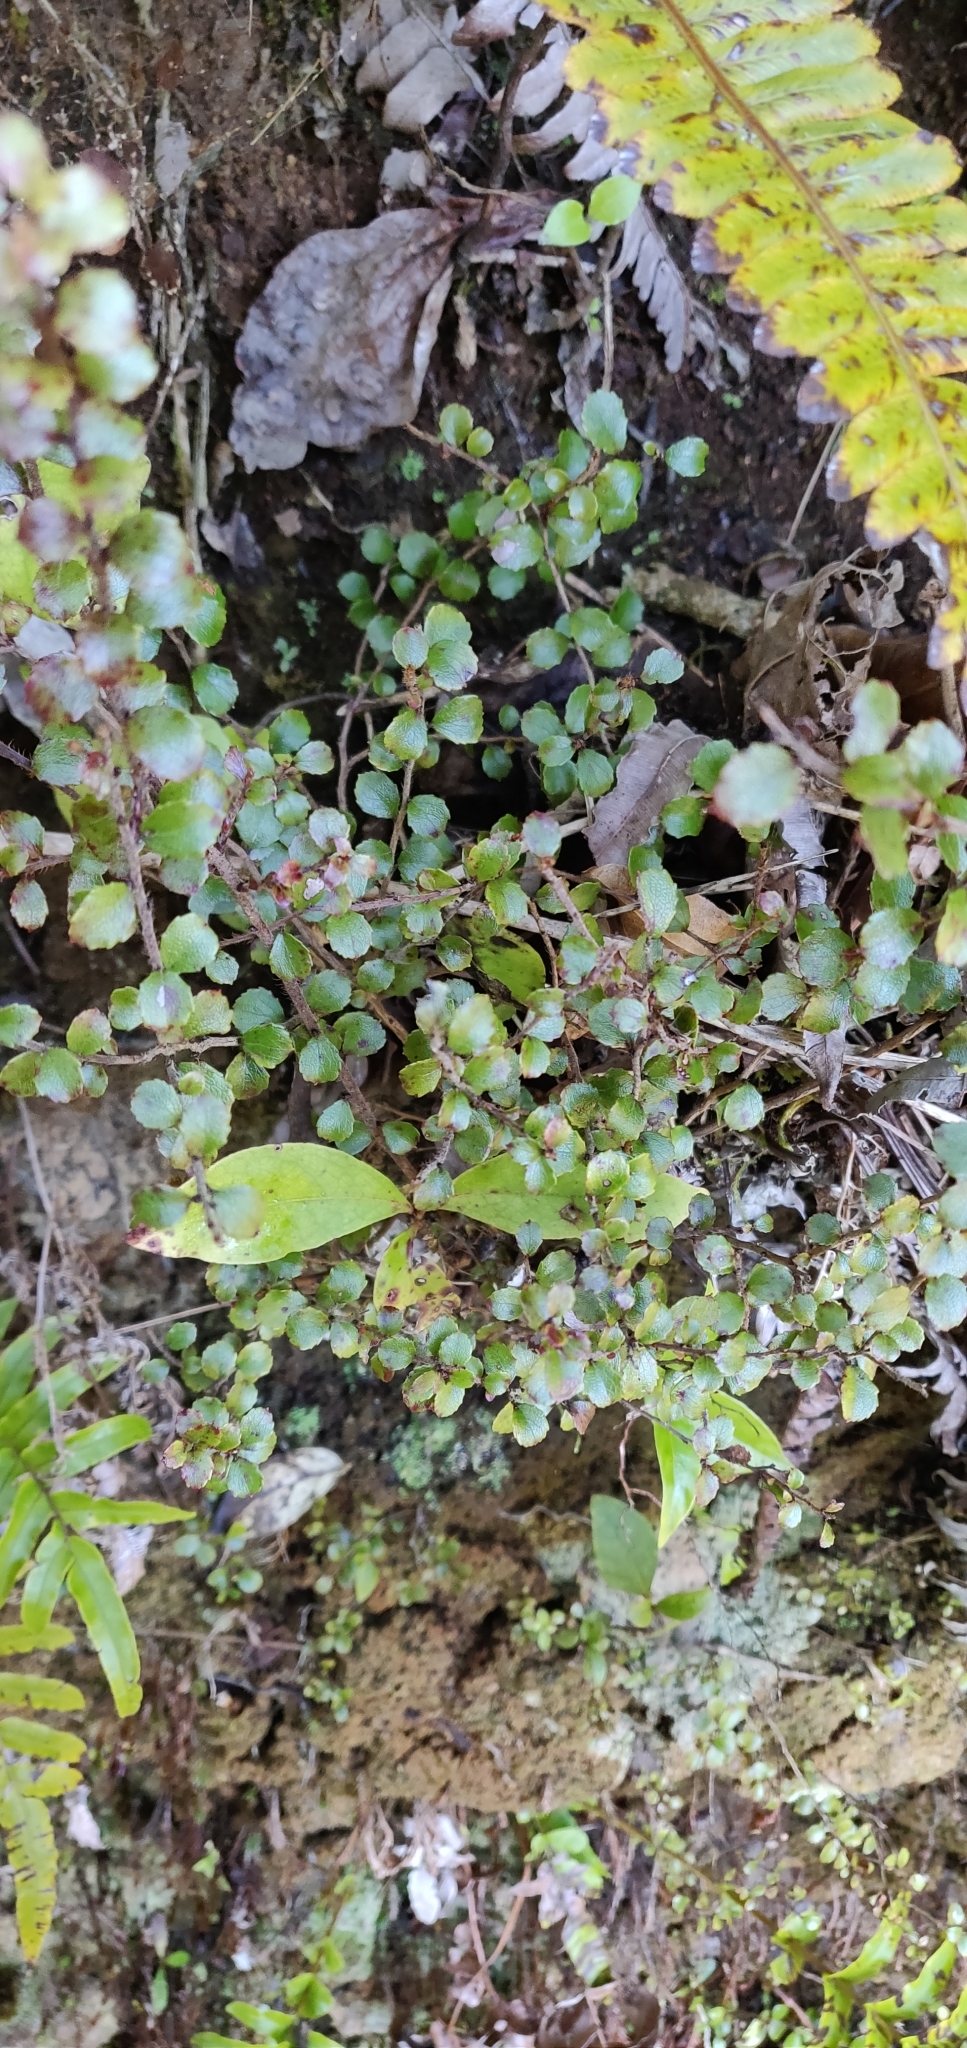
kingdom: Plantae
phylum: Tracheophyta
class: Magnoliopsida
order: Ericales
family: Ericaceae
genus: Gaultheria
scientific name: Gaultheria antipoda
